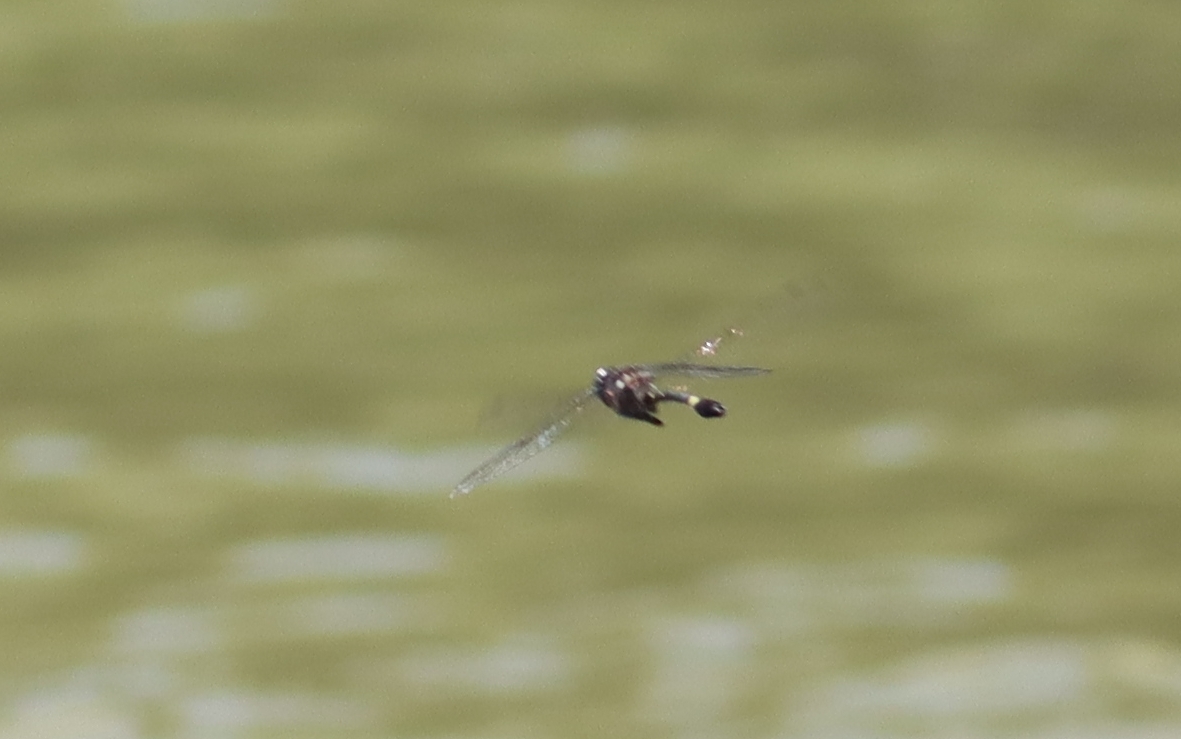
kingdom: Animalia
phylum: Arthropoda
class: Insecta
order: Odonata
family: Macromiidae
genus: Macromia
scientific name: Macromia illinoiensis
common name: Swift river cruiser
